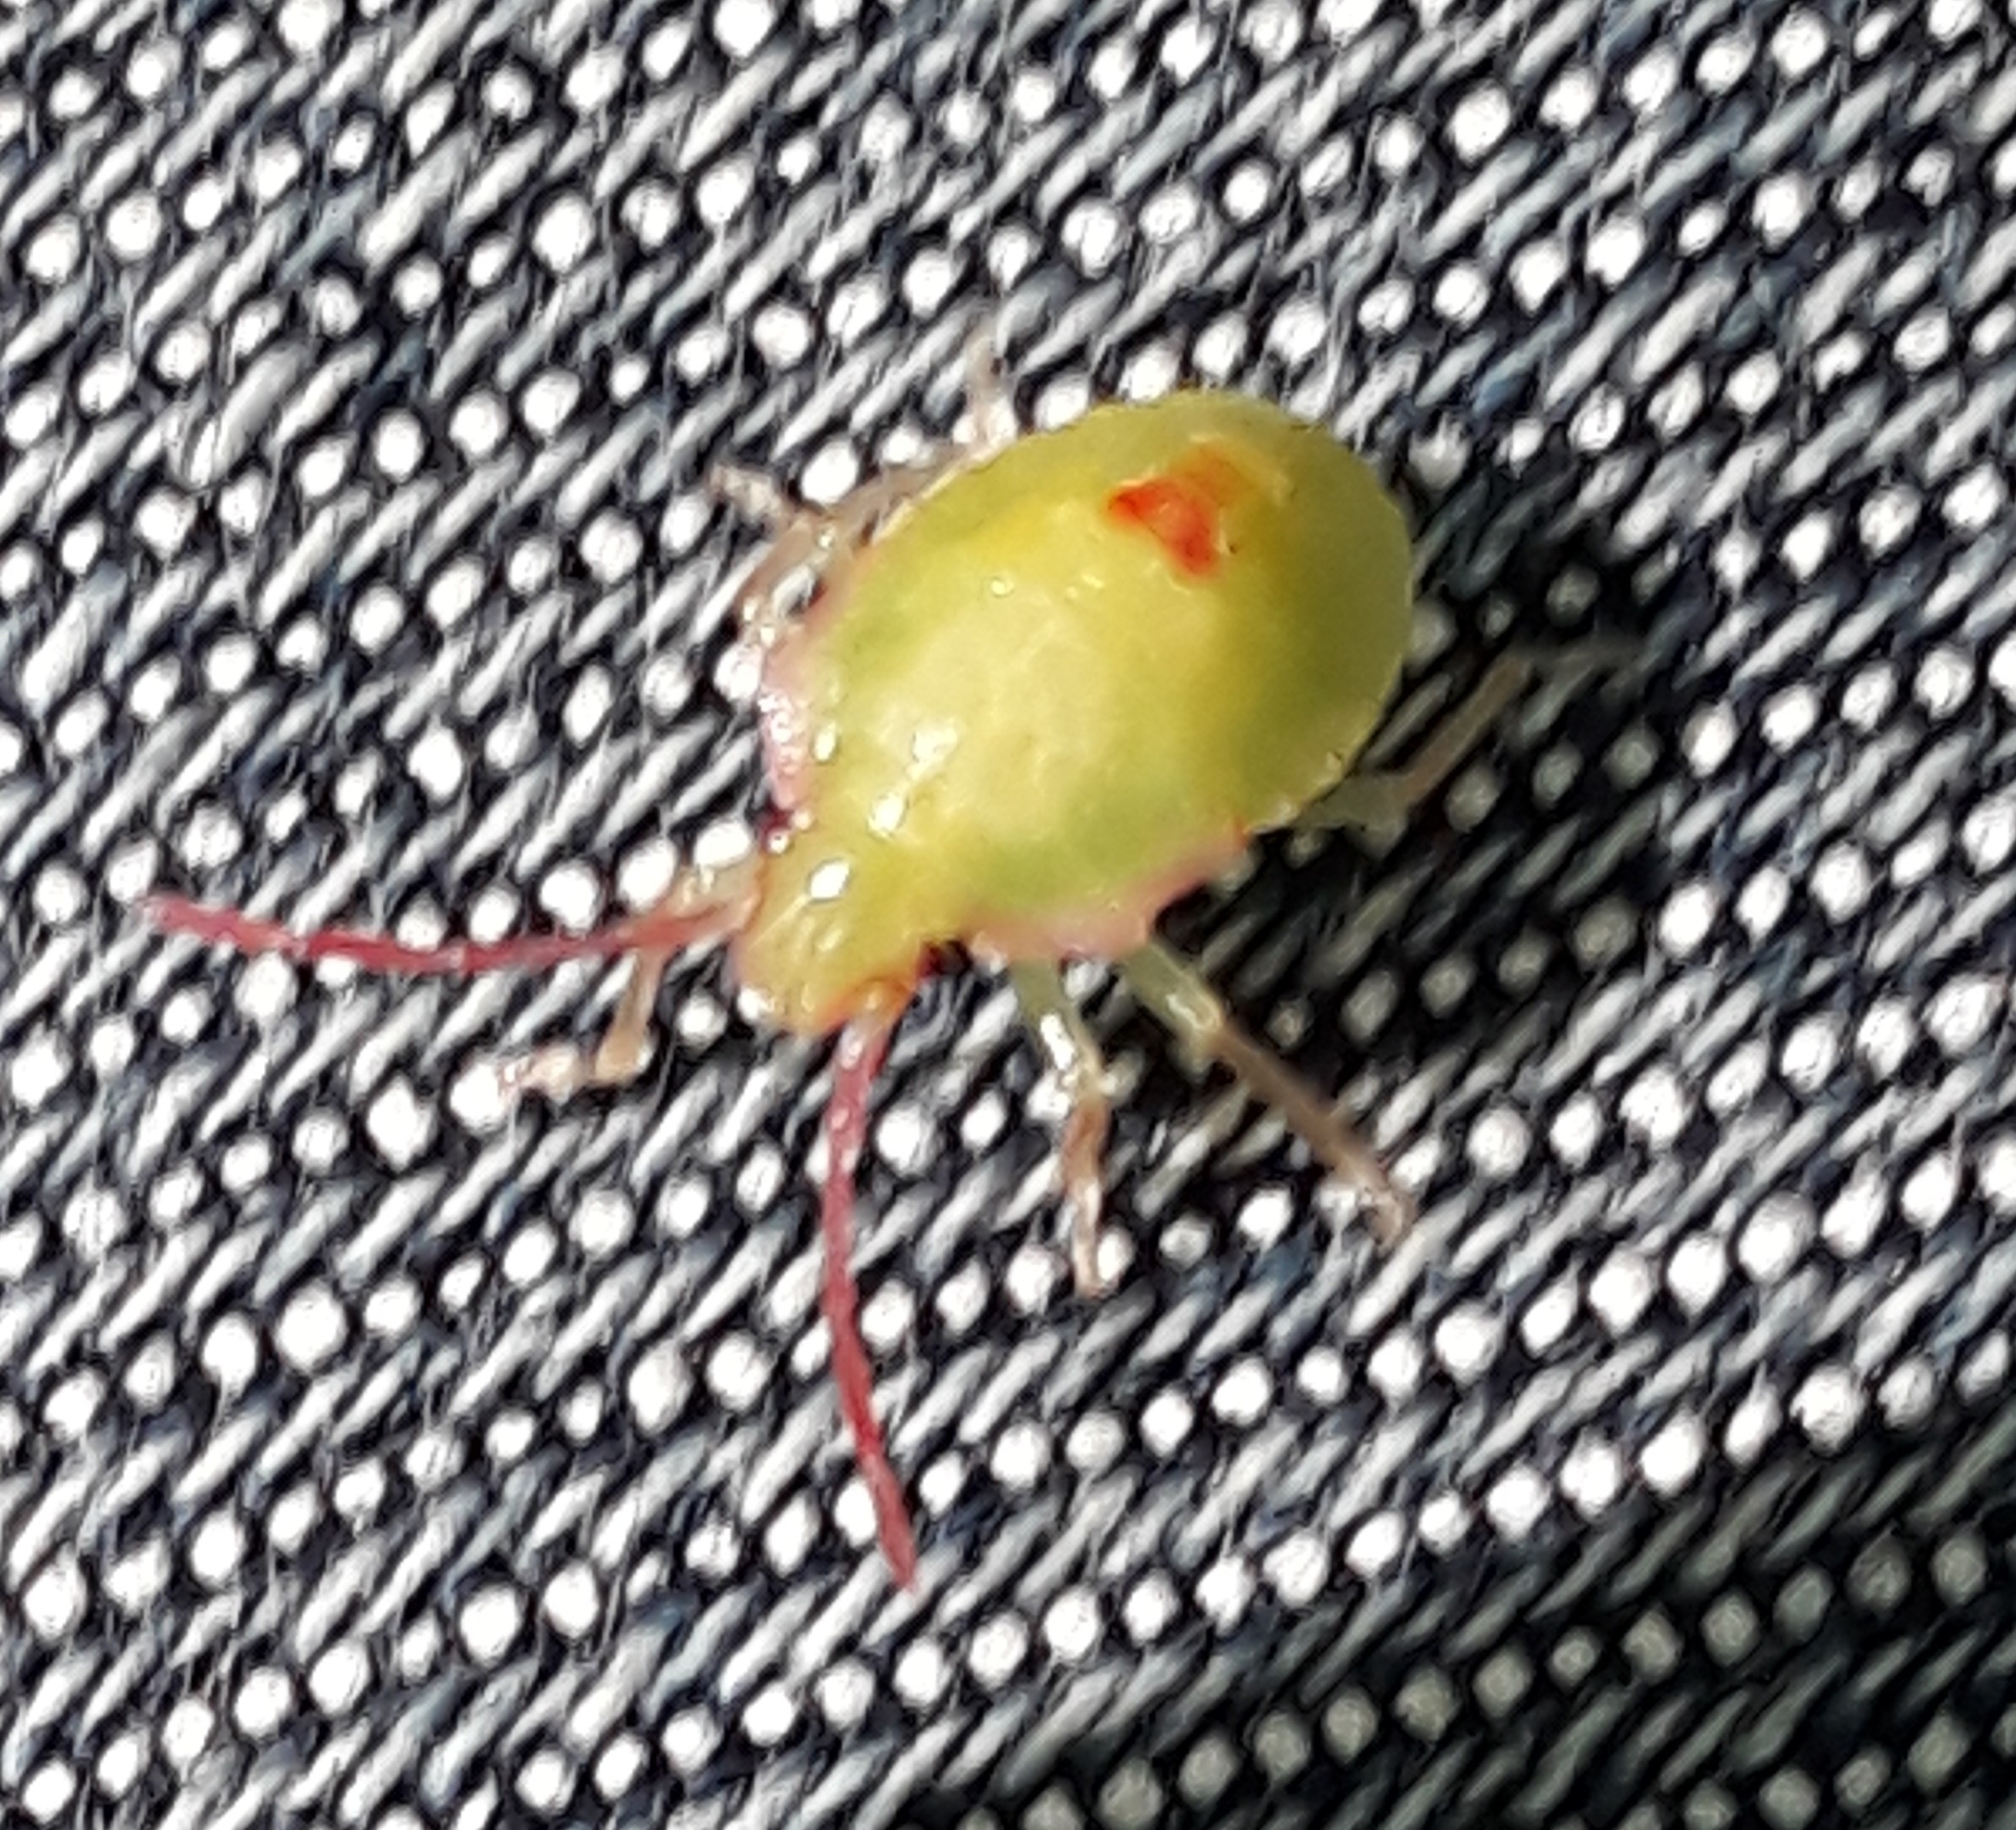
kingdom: Animalia
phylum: Arthropoda
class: Insecta
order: Hemiptera
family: Acanthosomatidae
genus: Acanthosoma
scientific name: Acanthosoma haemorrhoidale
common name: Hawthorn shieldbug
